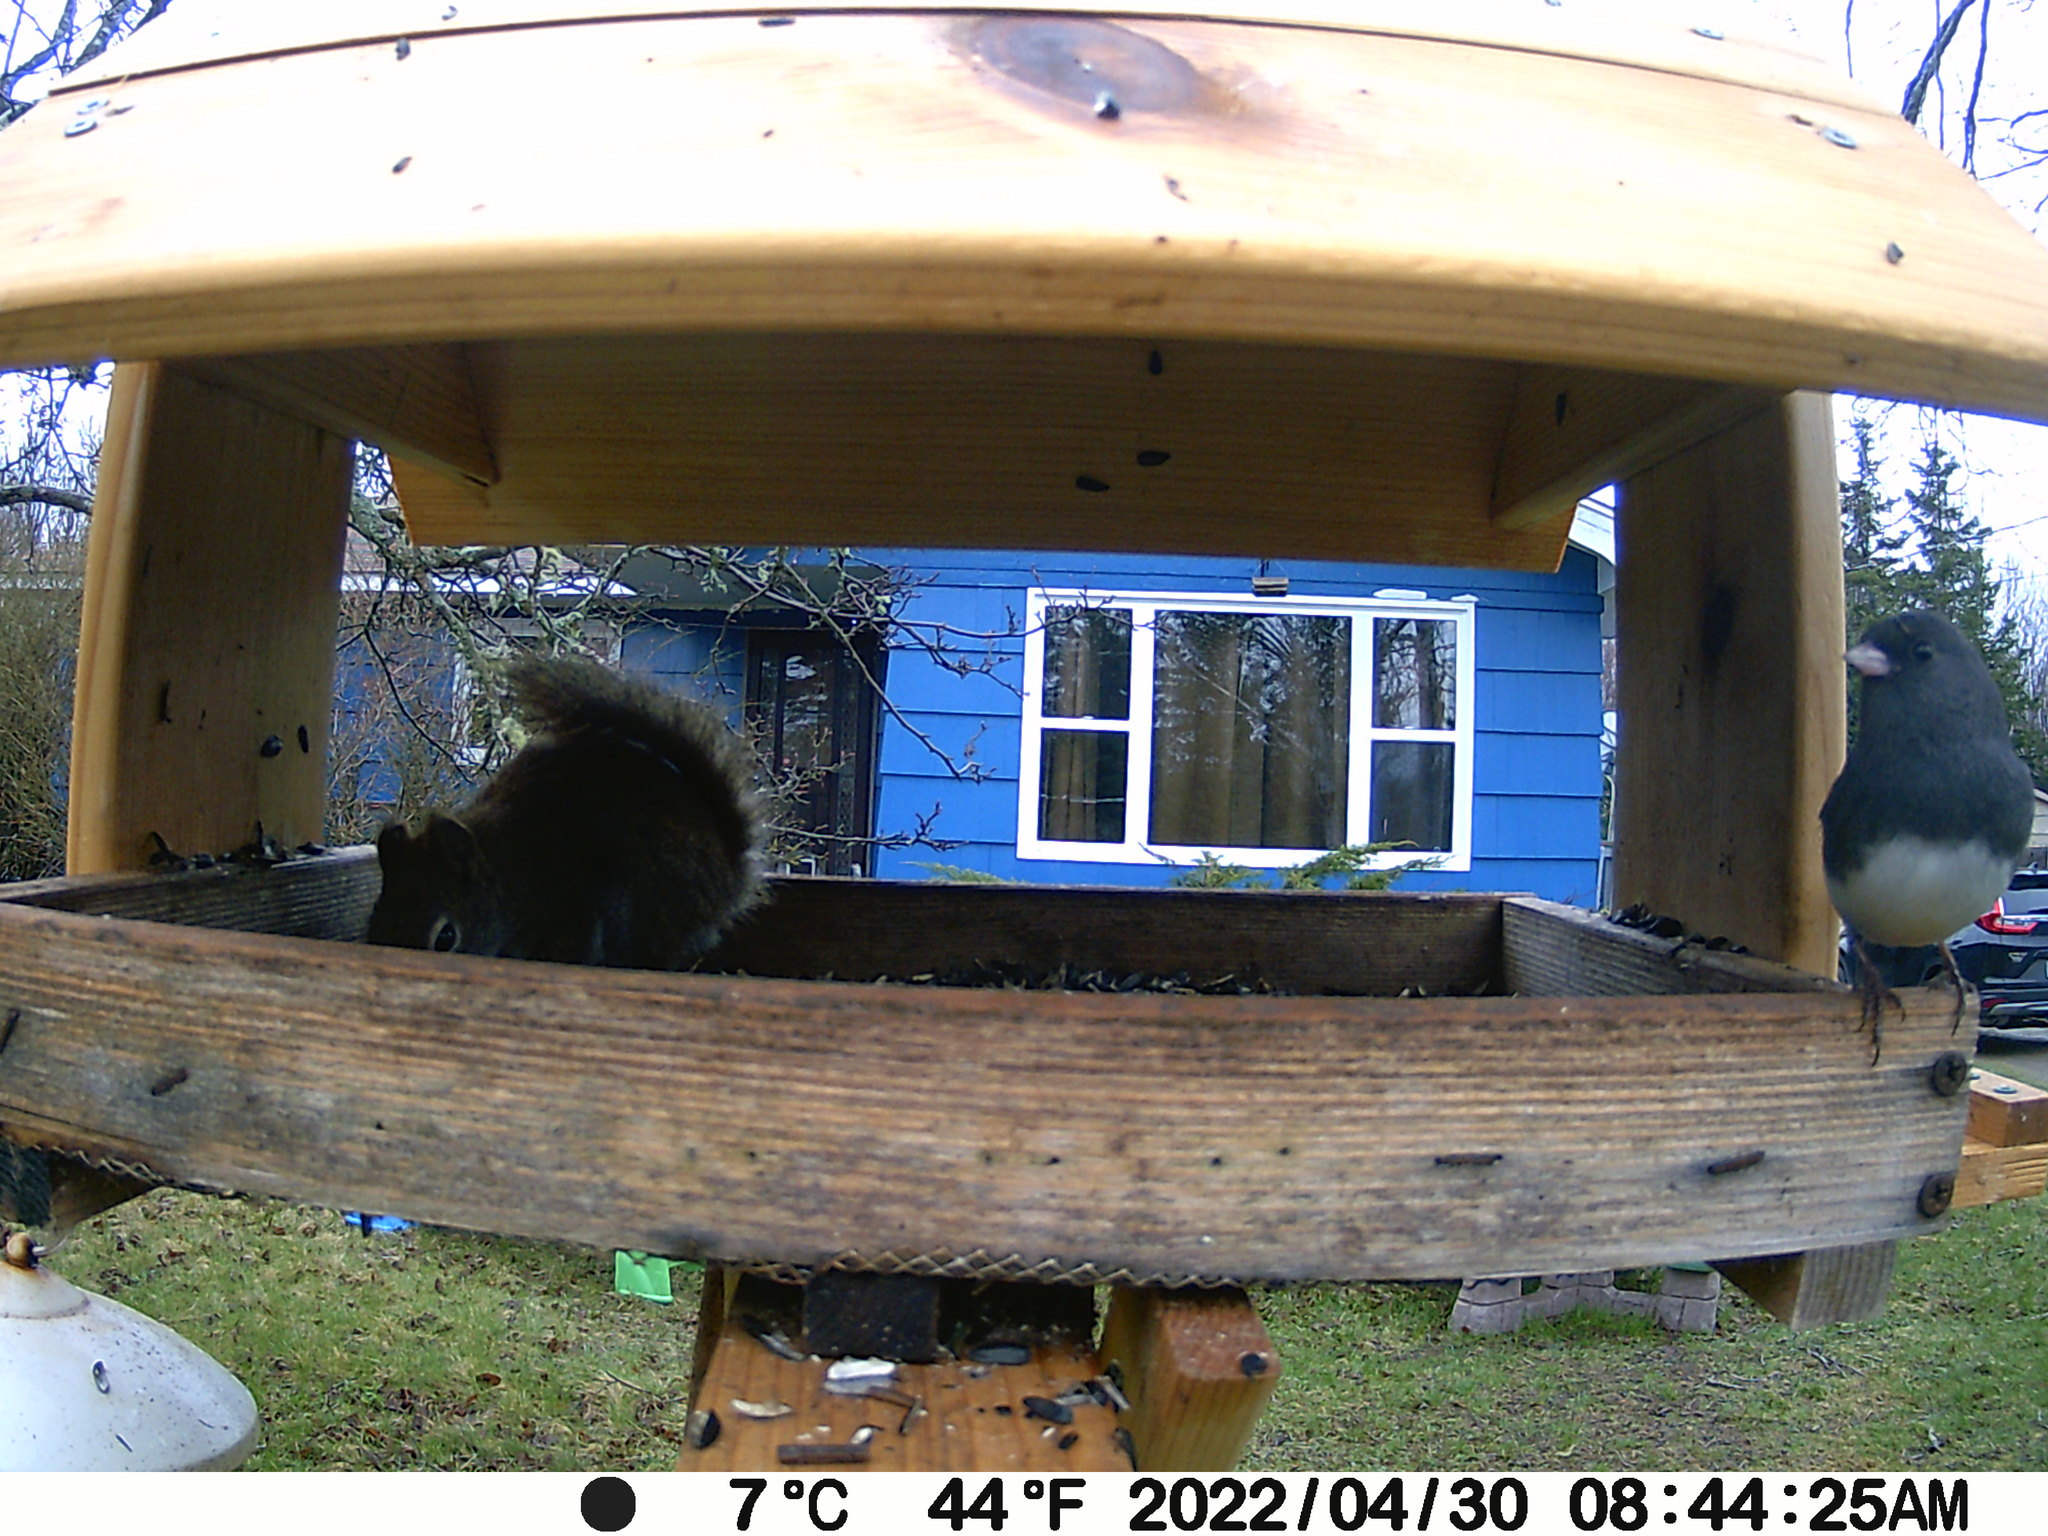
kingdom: Animalia
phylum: Chordata
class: Aves
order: Passeriformes
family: Passerellidae
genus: Junco
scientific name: Junco hyemalis
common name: Dark-eyed junco
